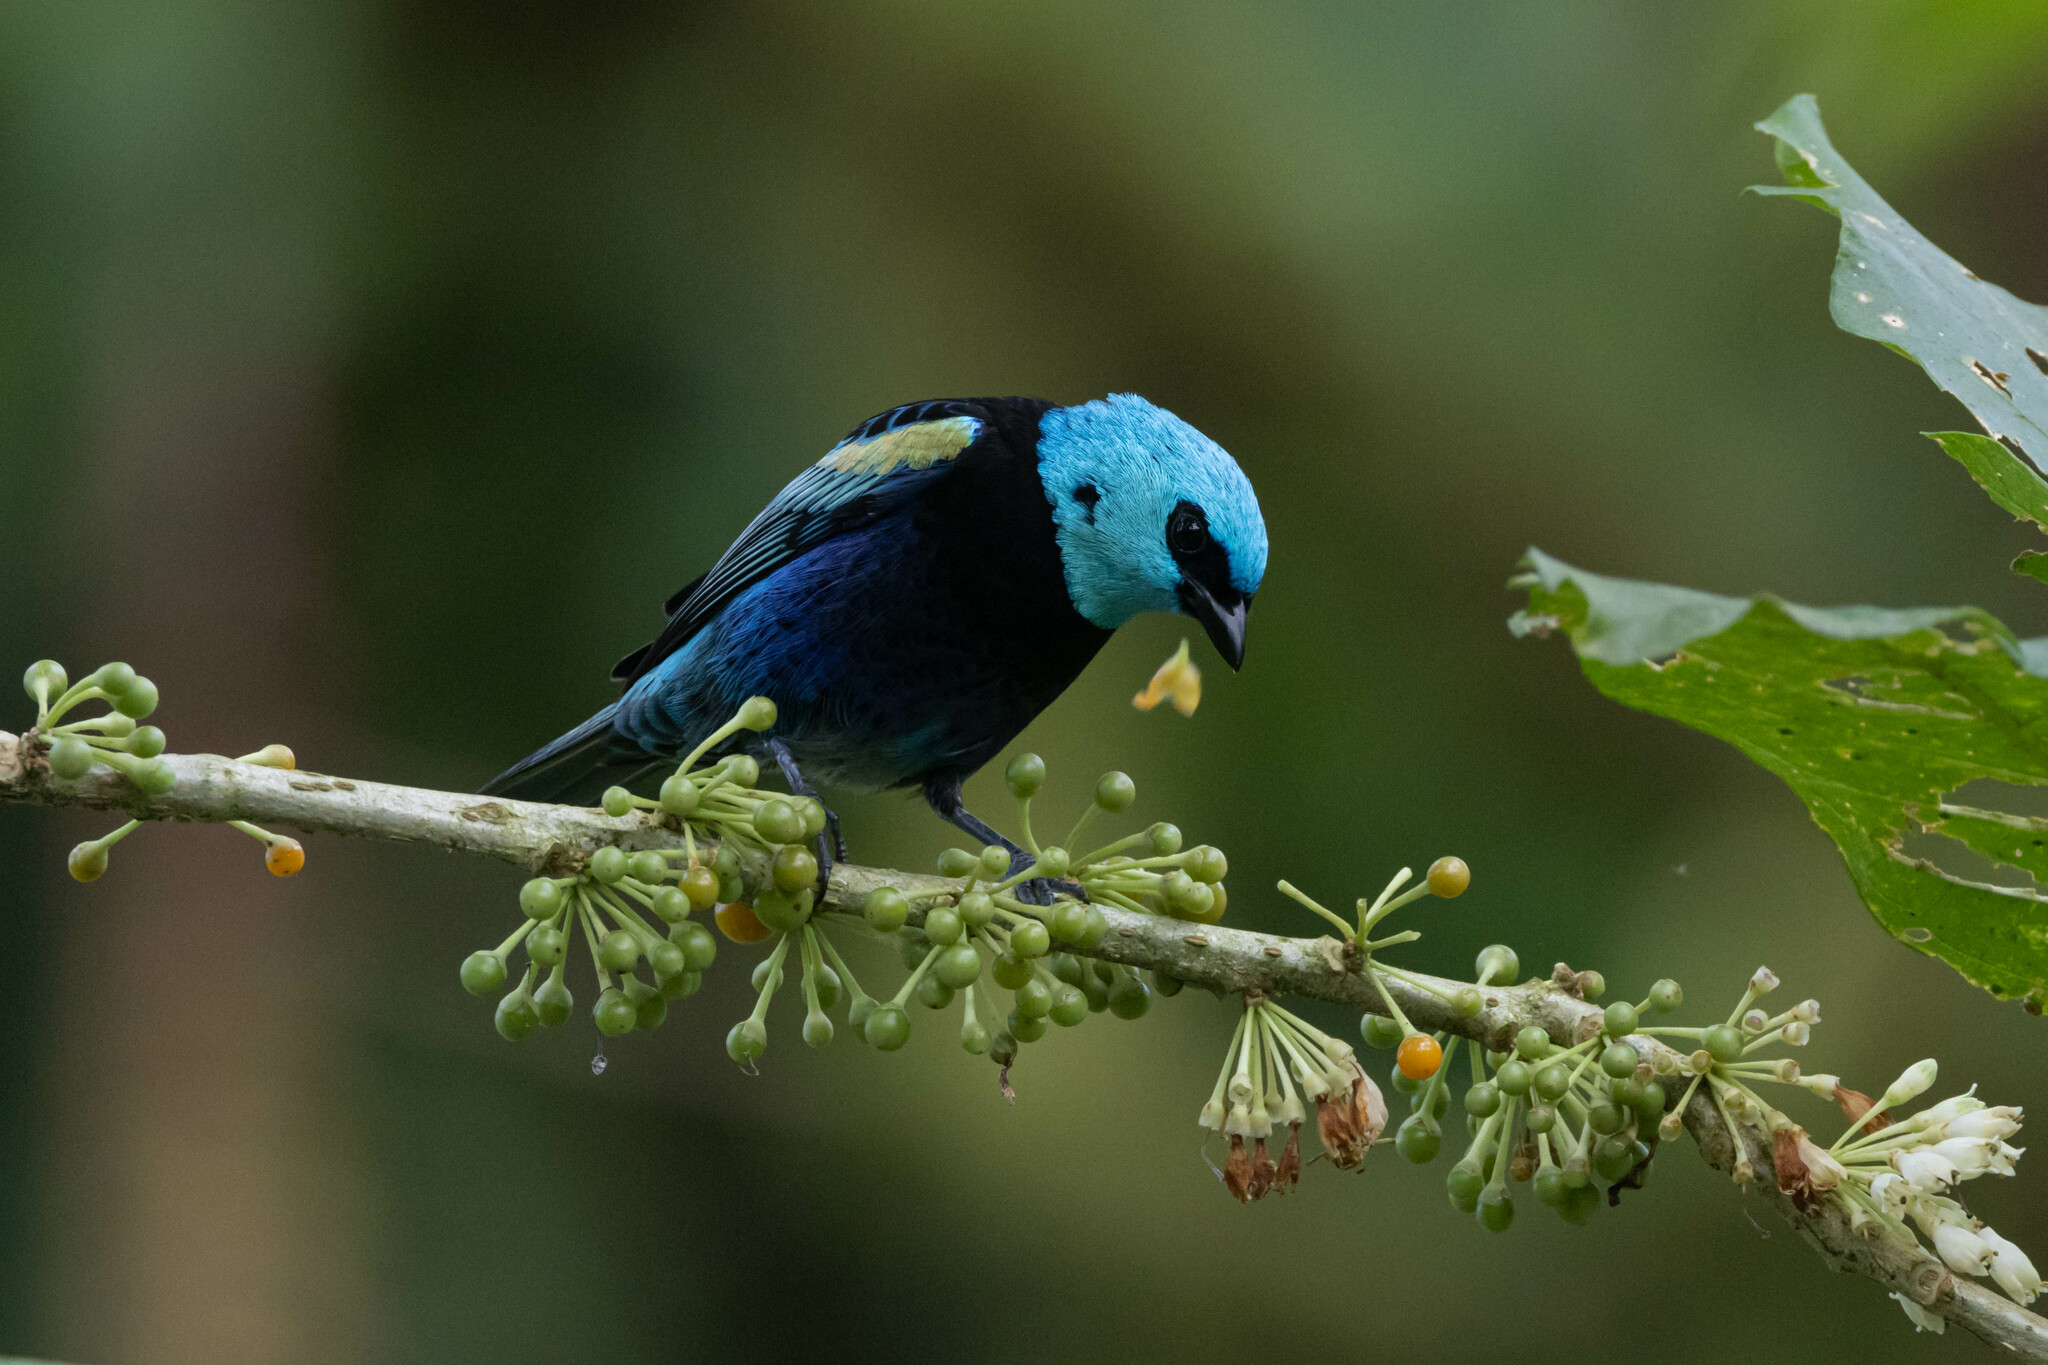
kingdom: Animalia
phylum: Chordata
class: Aves
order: Passeriformes
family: Thraupidae
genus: Stilpnia
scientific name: Stilpnia cyanicollis
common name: Blue-necked tanager
